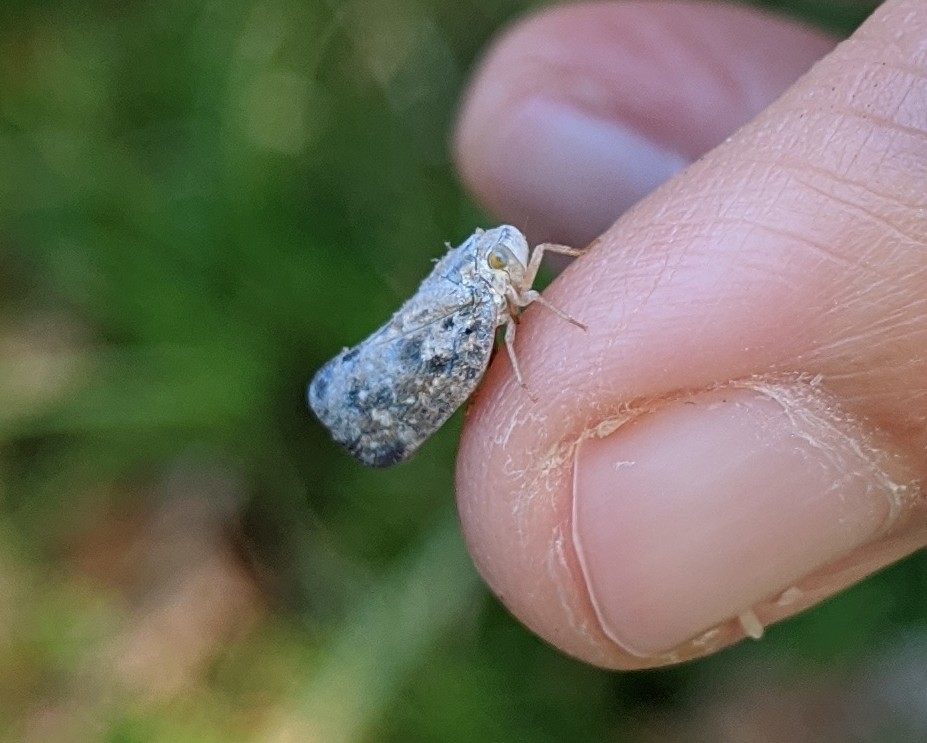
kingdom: Animalia
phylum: Arthropoda
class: Insecta
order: Hemiptera
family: Flatidae
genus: Metcalfa
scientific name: Metcalfa pruinosa
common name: Citrus flatid planthopper
